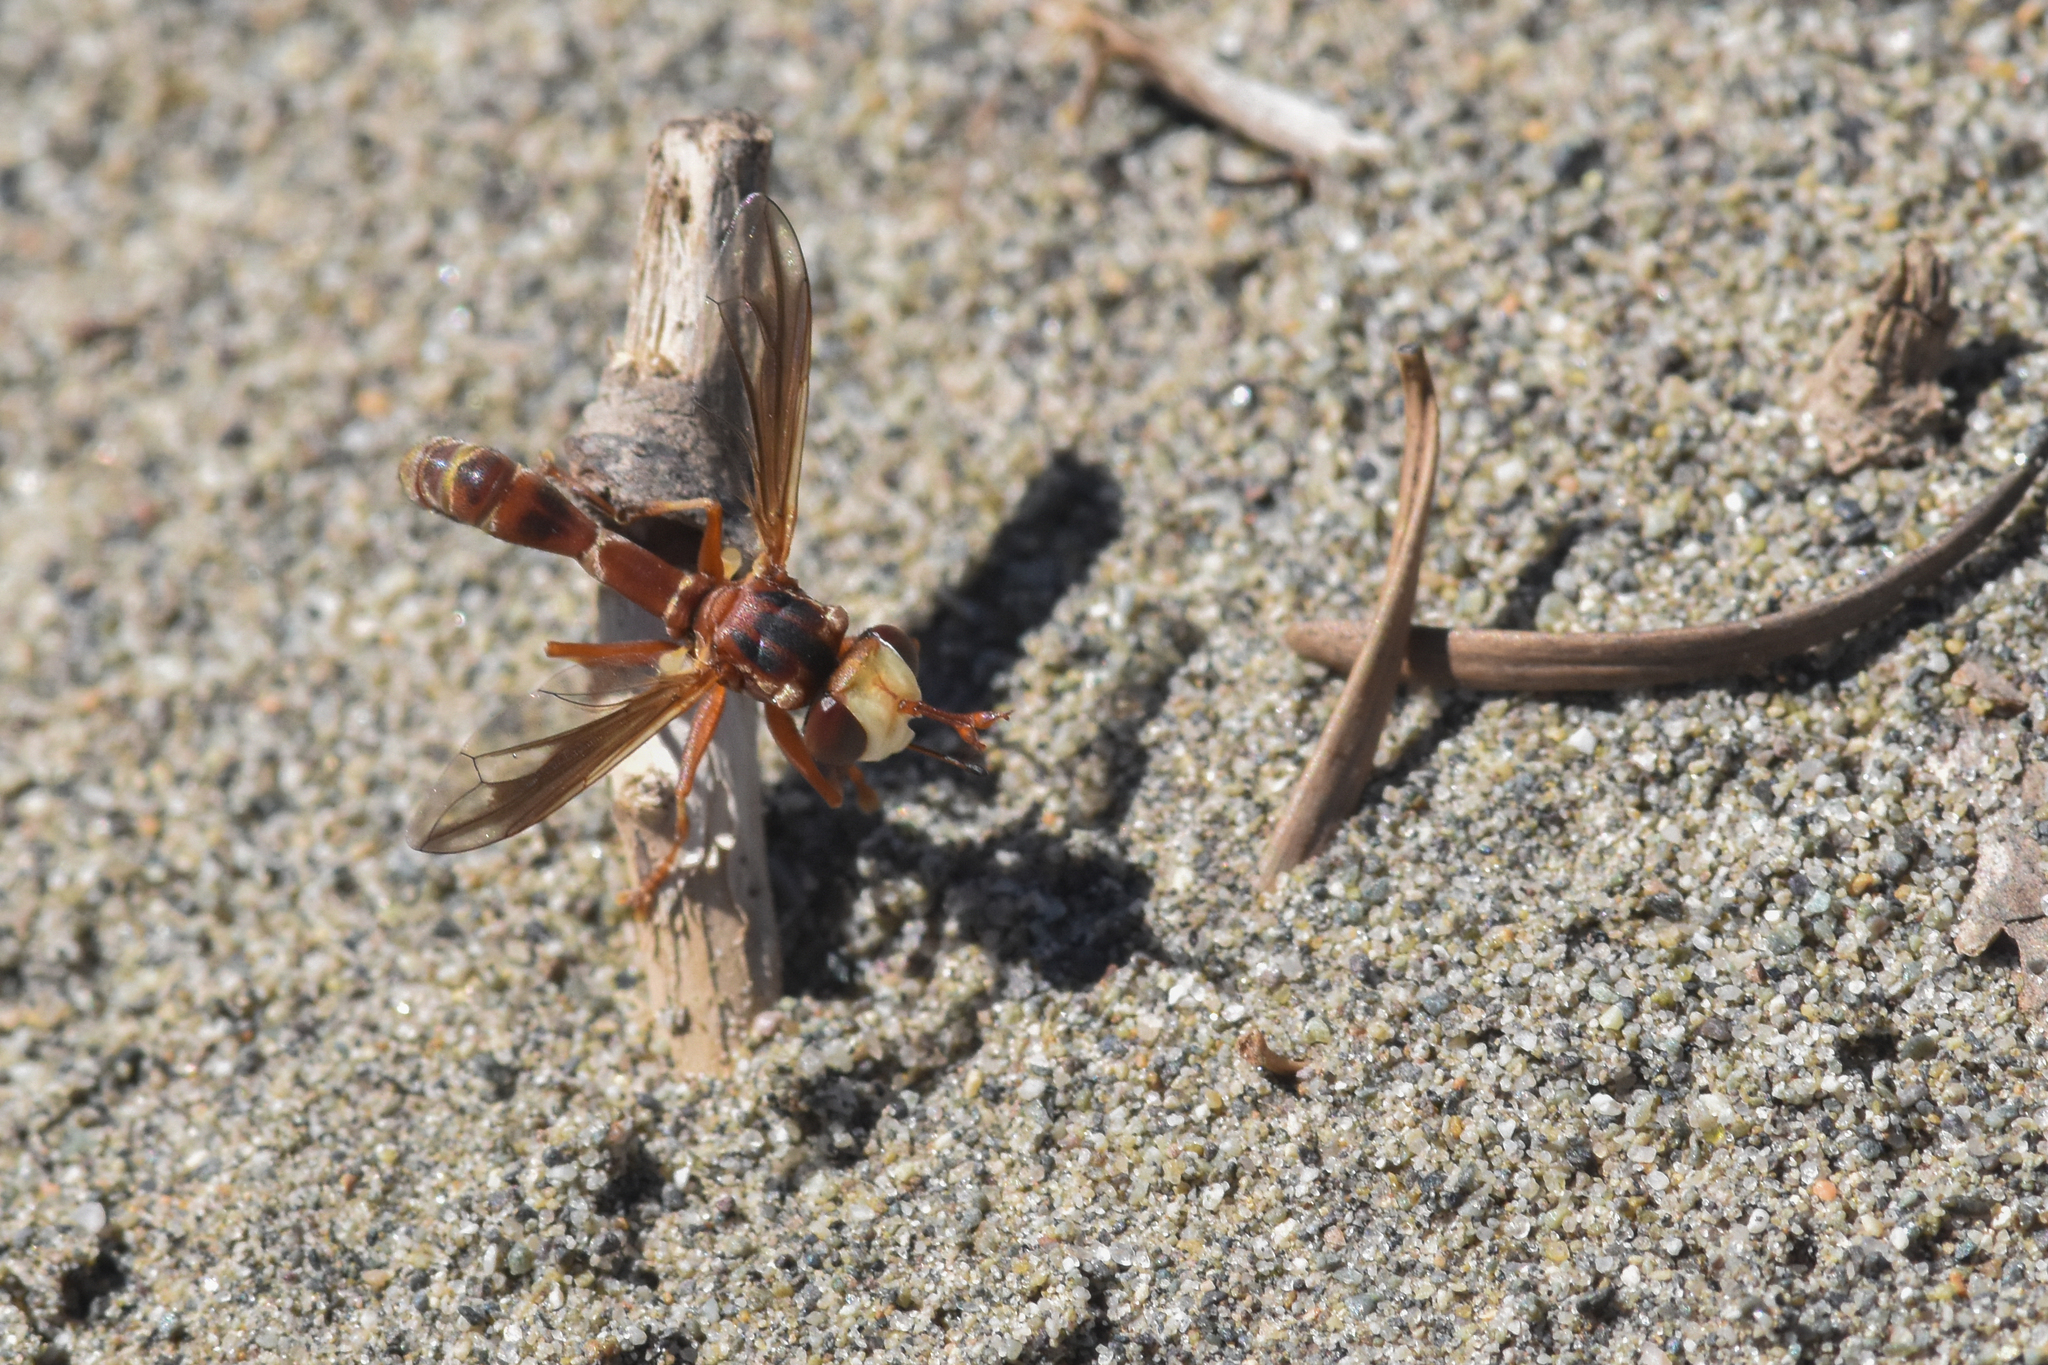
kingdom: Animalia
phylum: Arthropoda
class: Insecta
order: Diptera
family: Conopidae
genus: Physocephala
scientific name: Physocephala texana
